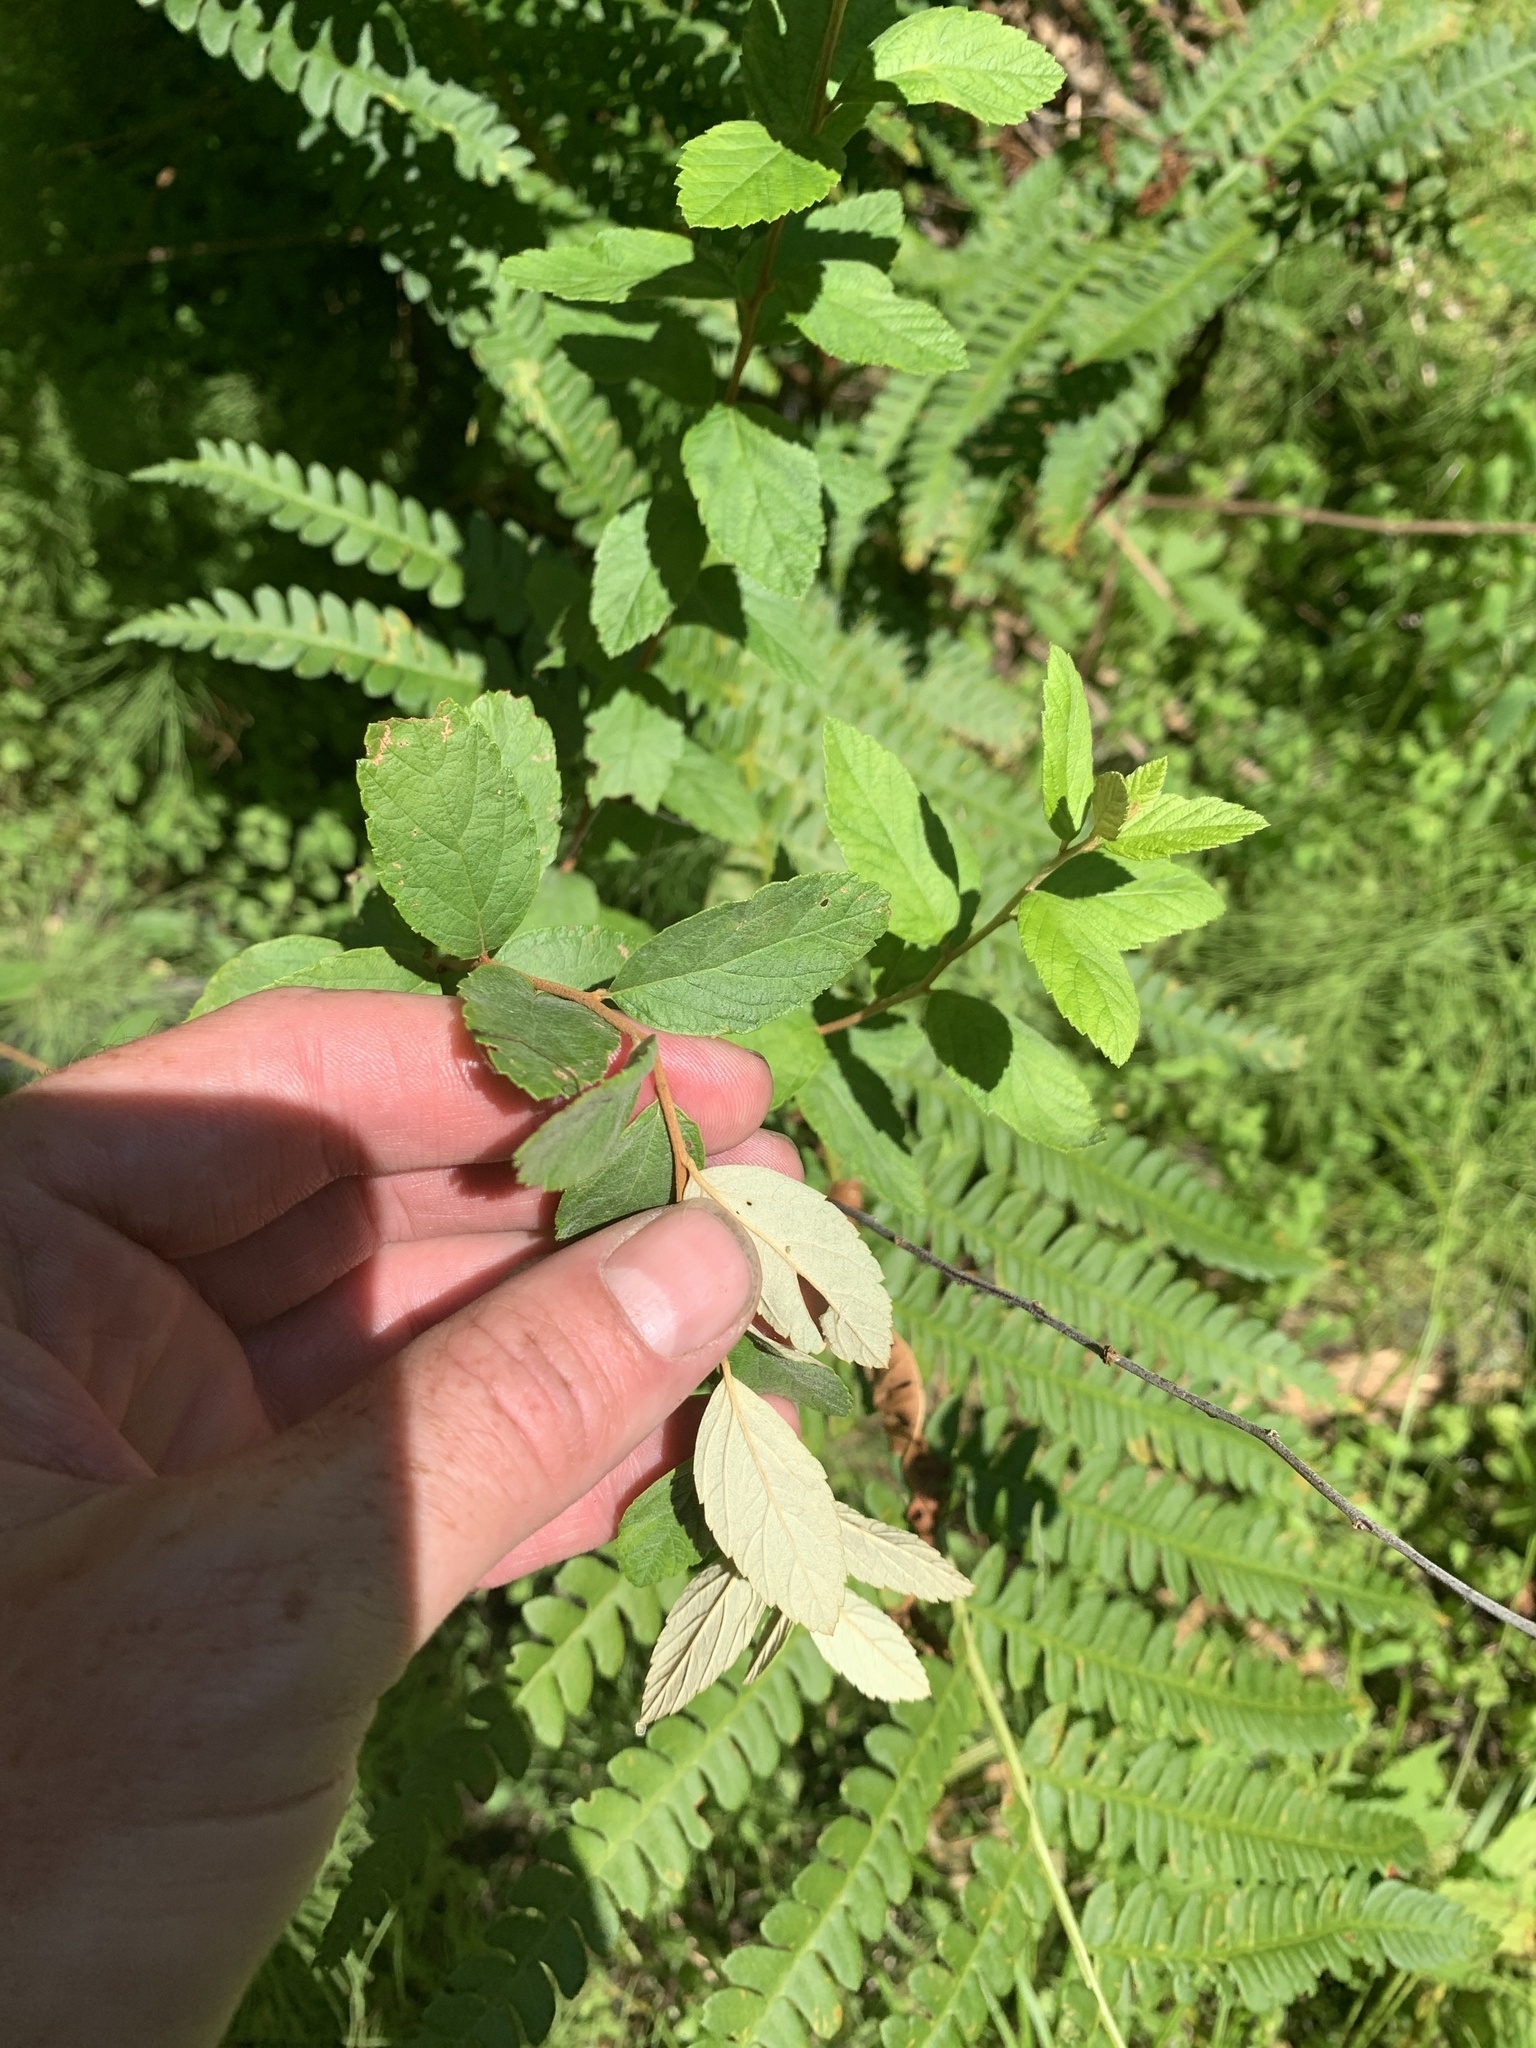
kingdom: Plantae
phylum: Tracheophyta
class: Magnoliopsida
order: Rosales
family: Rosaceae
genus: Spiraea
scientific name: Spiraea tomentosa
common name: Hardhack
